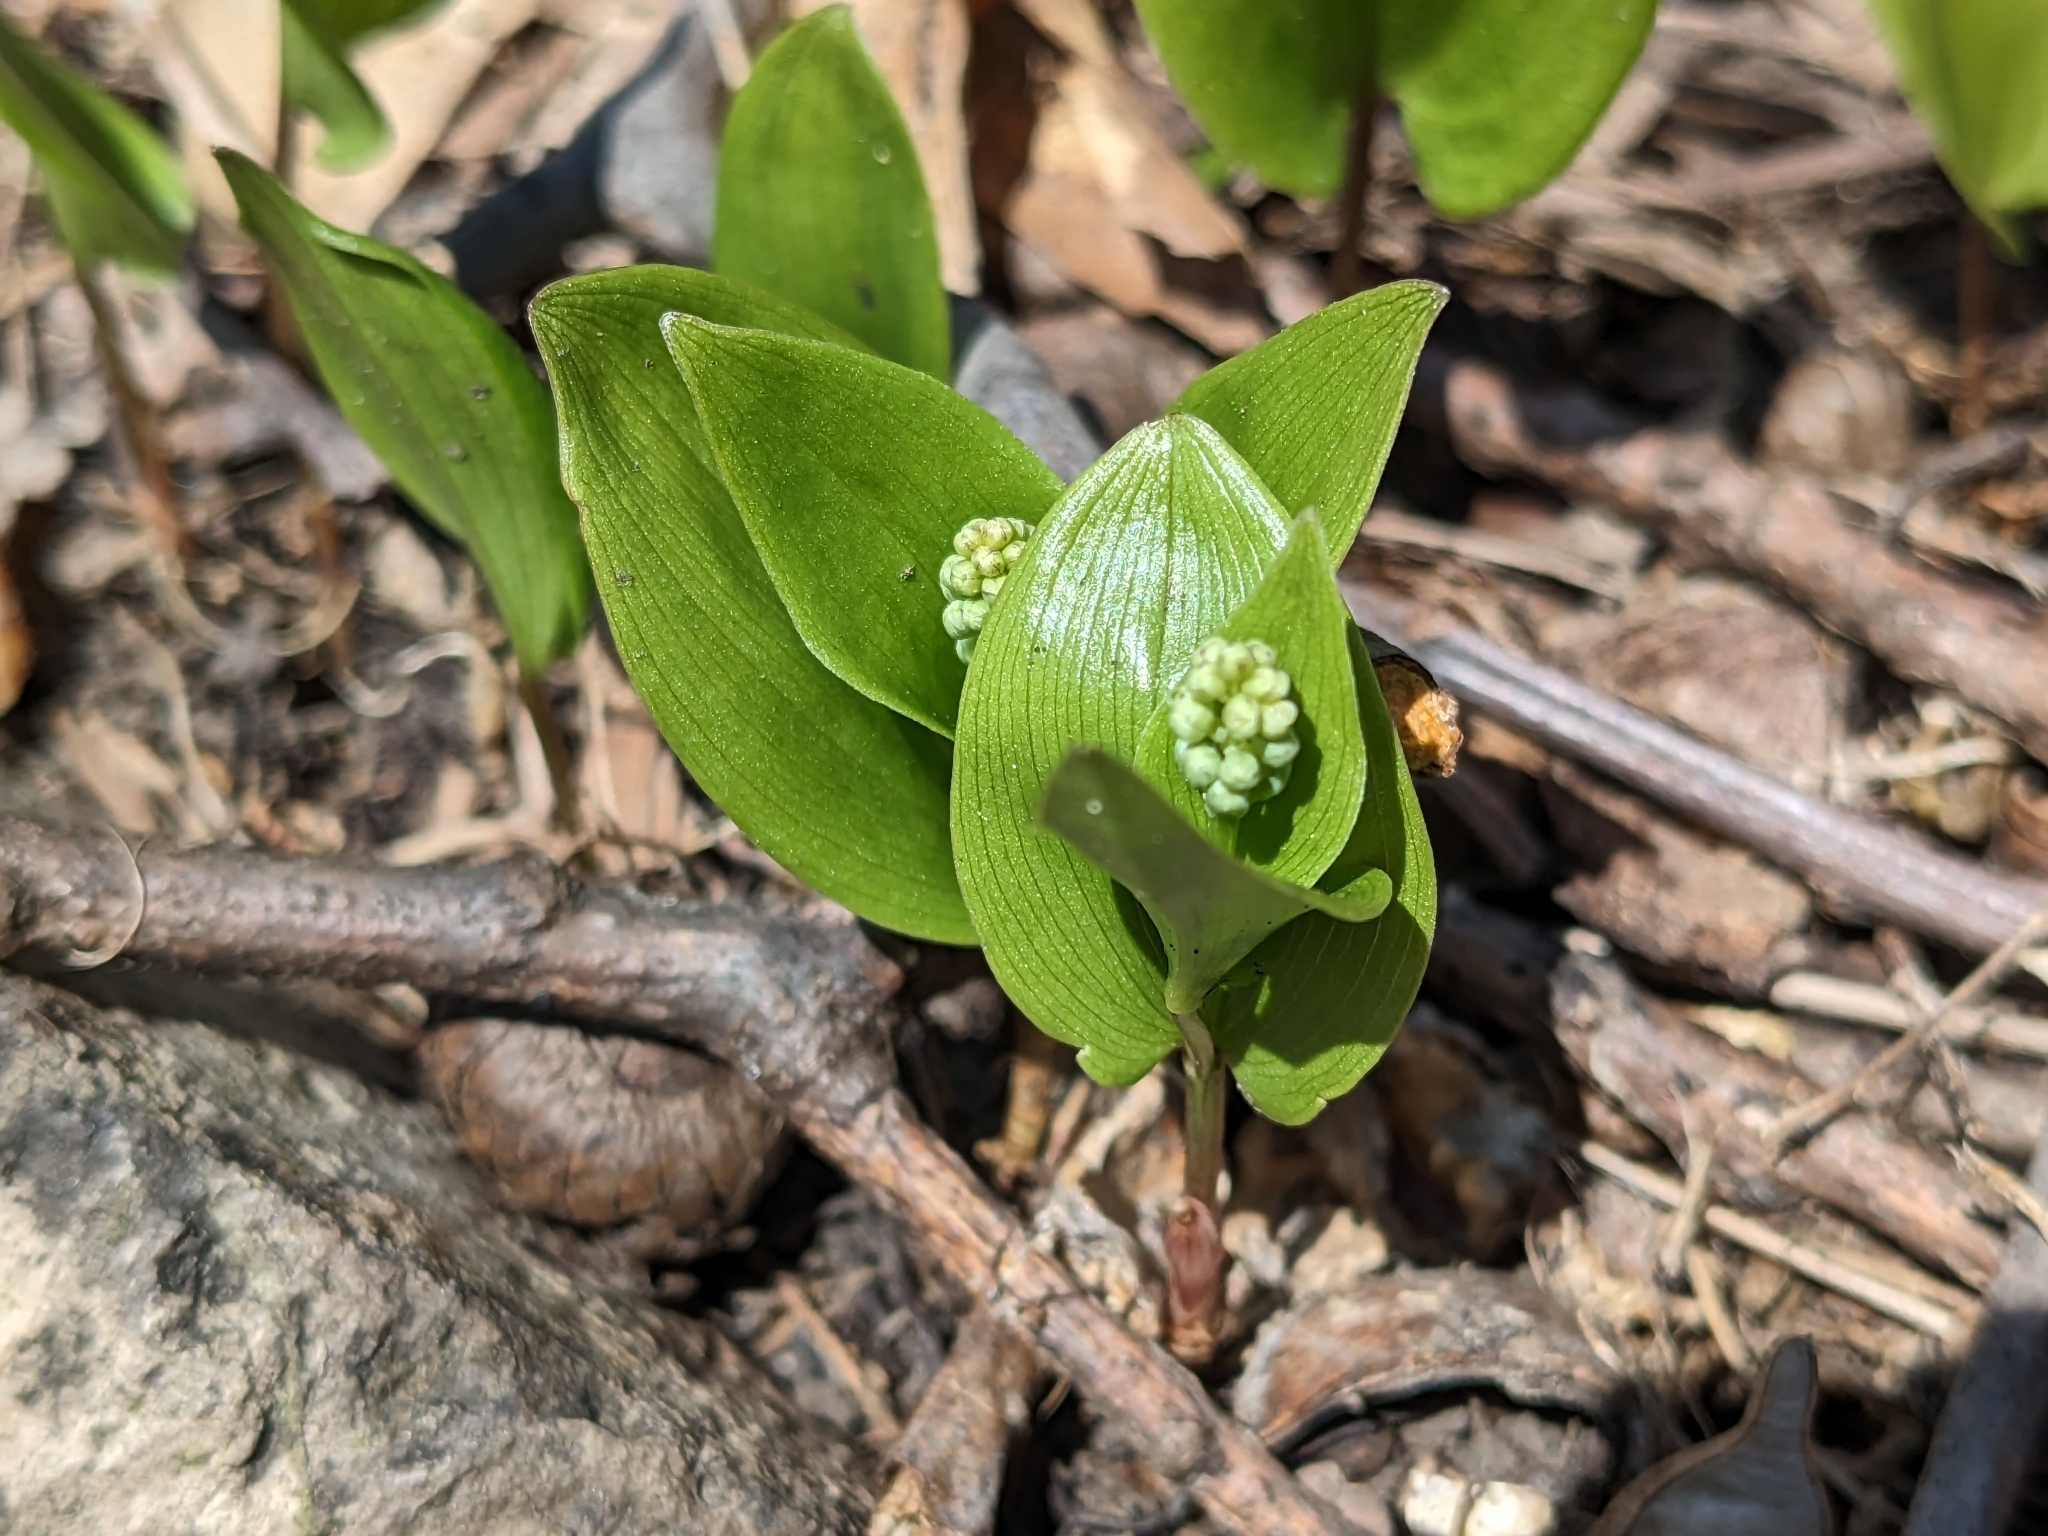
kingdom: Plantae
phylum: Tracheophyta
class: Liliopsida
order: Asparagales
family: Asparagaceae
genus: Maianthemum
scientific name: Maianthemum canadense
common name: False lily-of-the-valley
